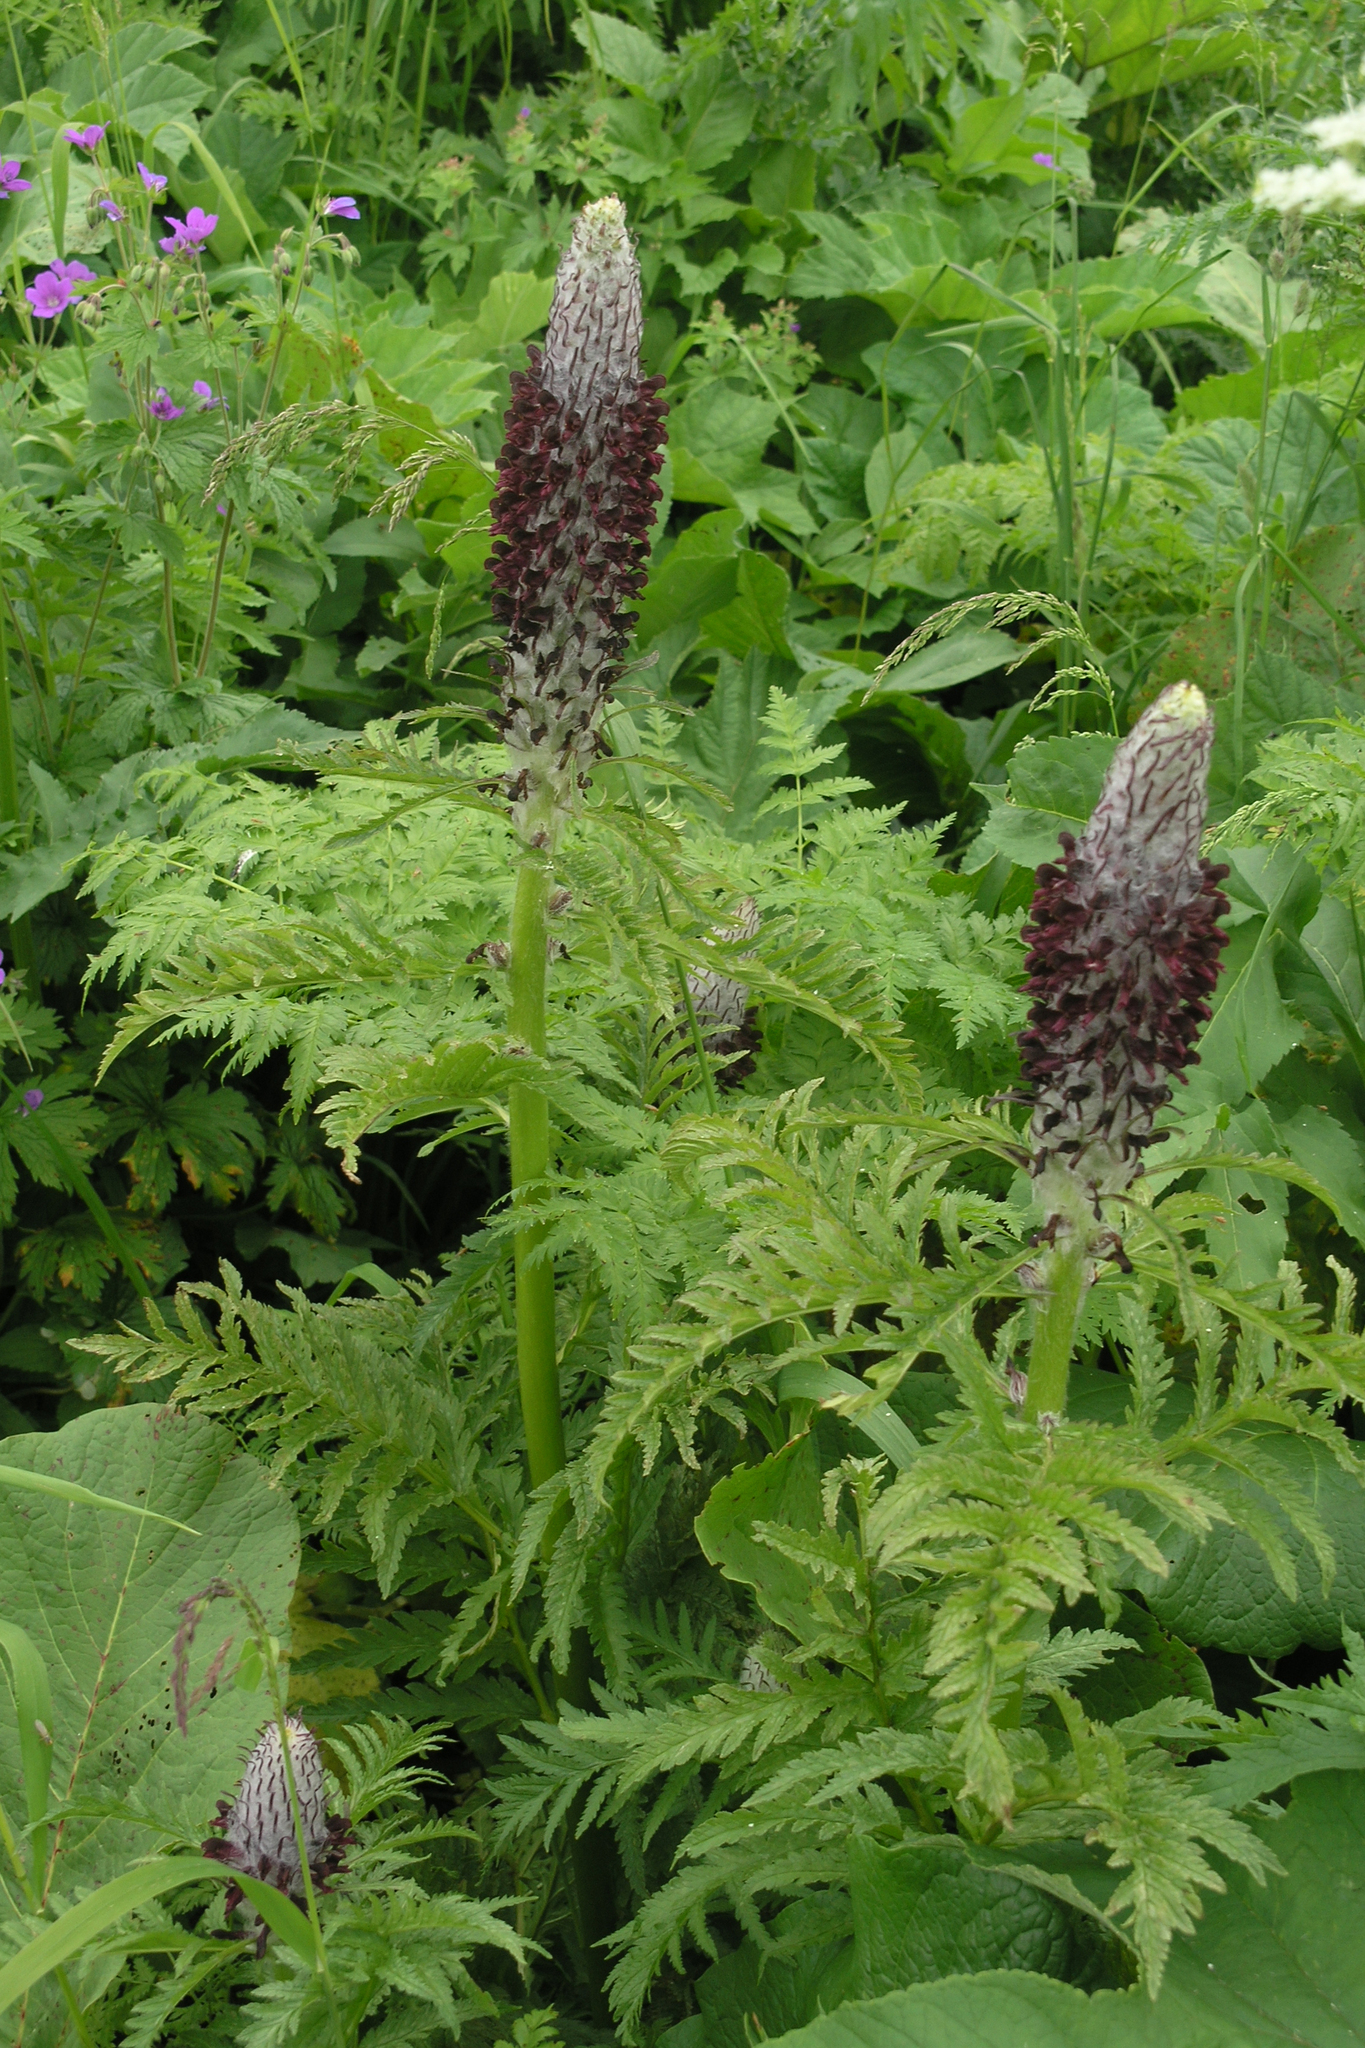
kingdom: Plantae
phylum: Tracheophyta
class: Magnoliopsida
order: Lamiales
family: Orobanchaceae
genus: Pedicularis
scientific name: Pedicularis atropurpurea
